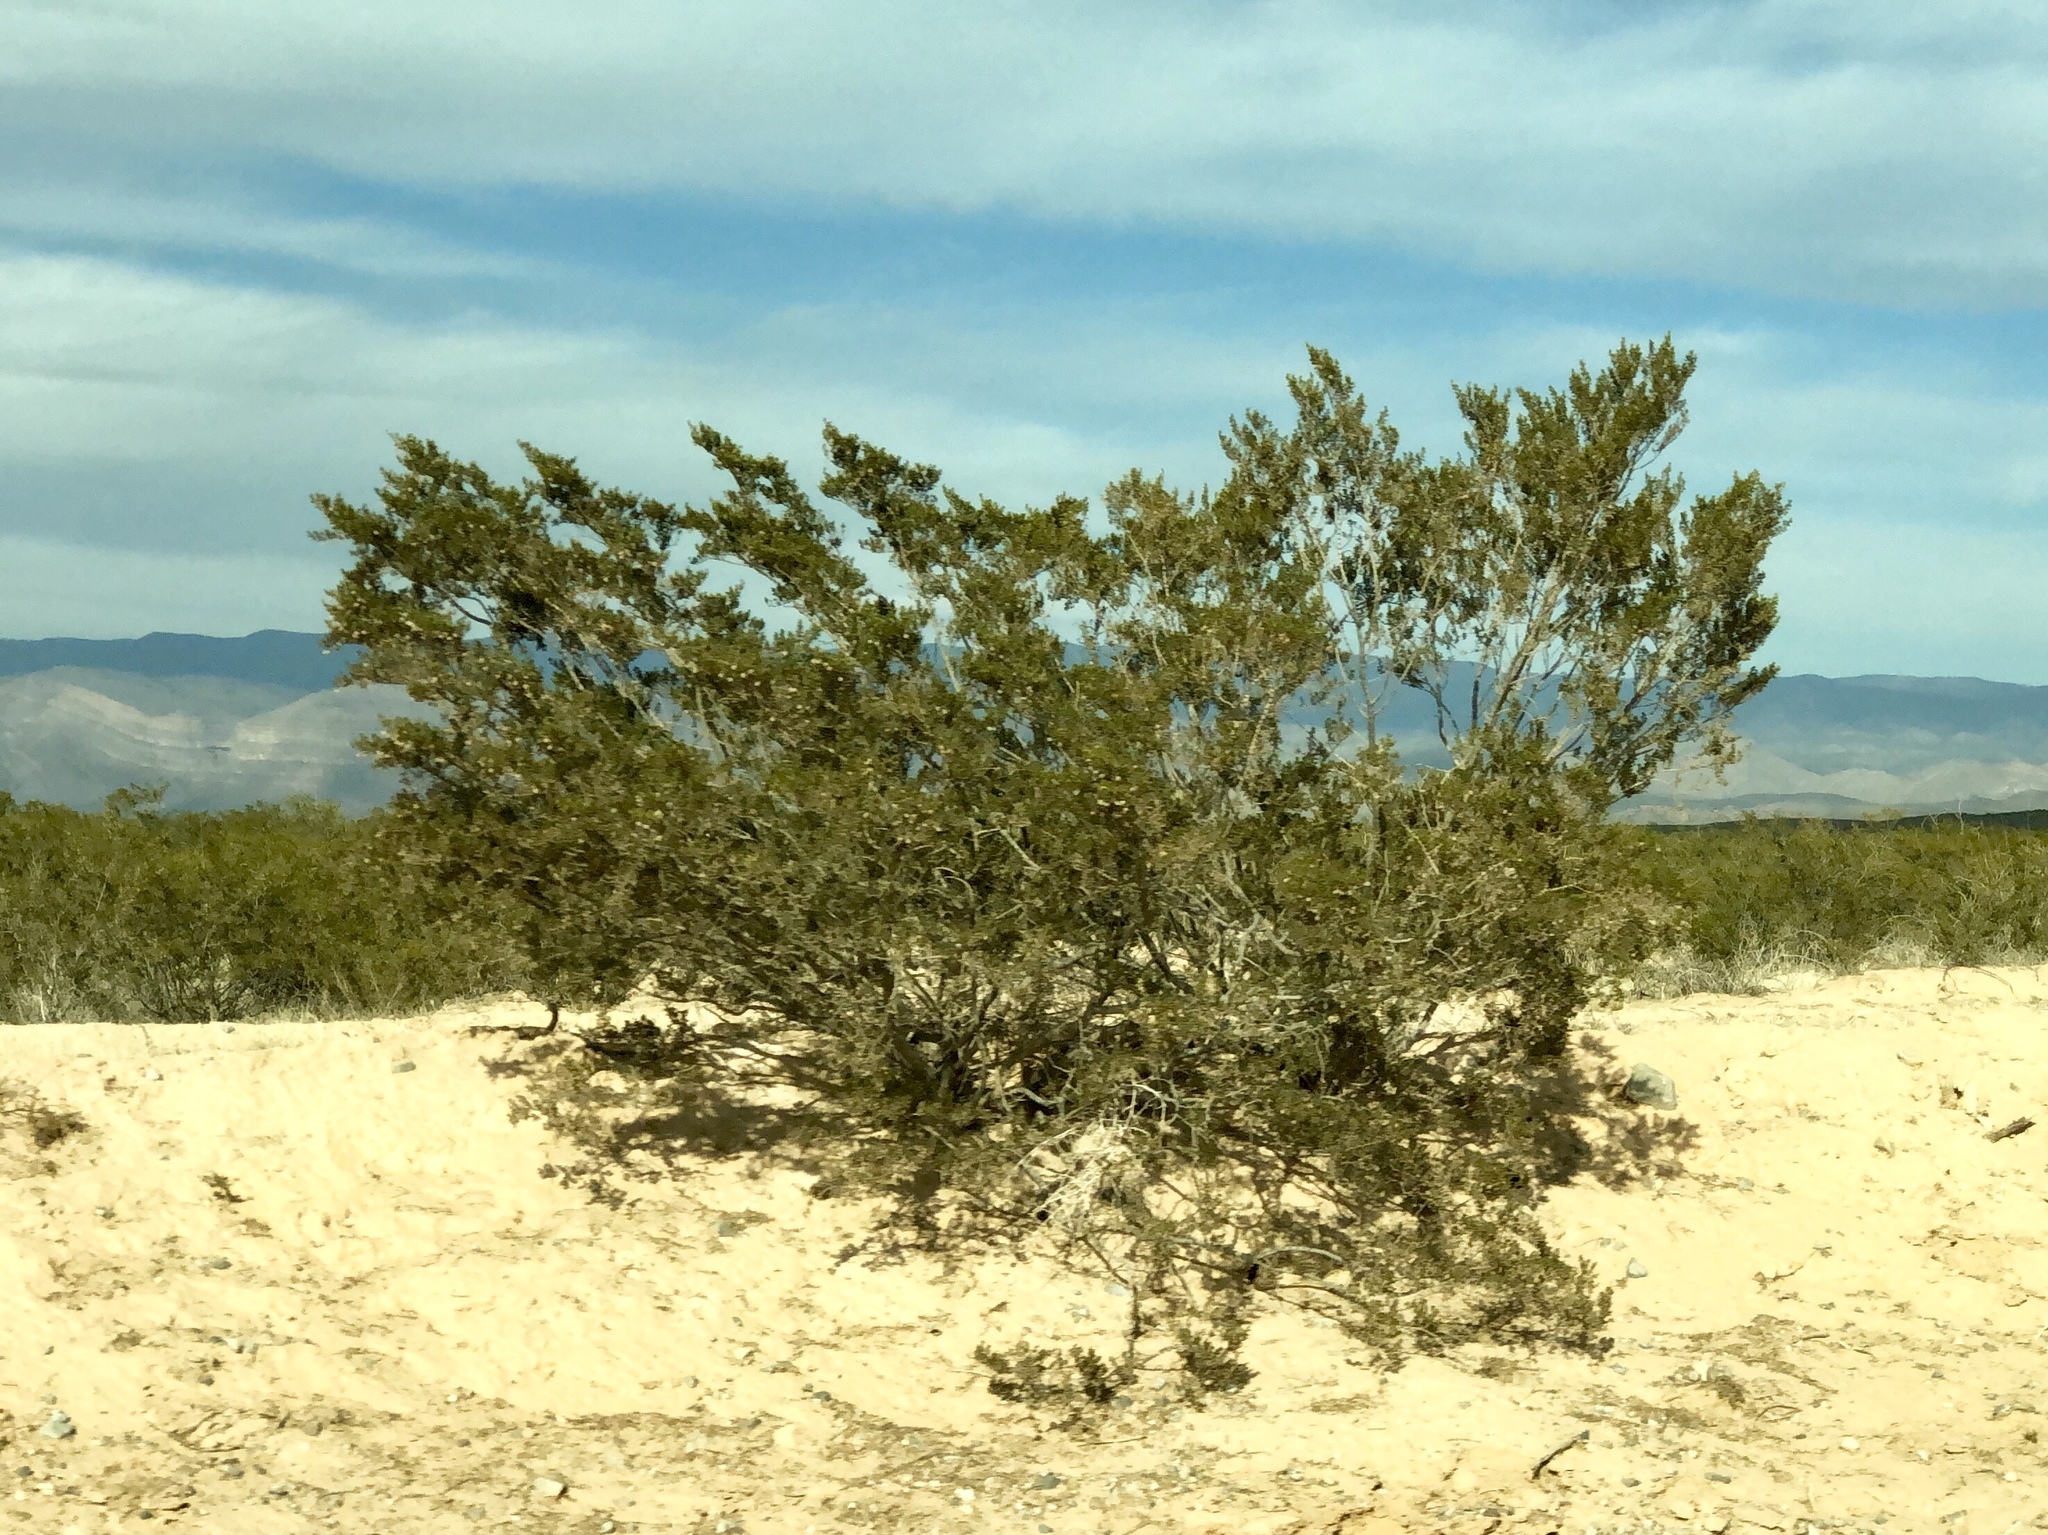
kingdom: Plantae
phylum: Tracheophyta
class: Magnoliopsida
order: Zygophyllales
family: Zygophyllaceae
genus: Larrea
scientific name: Larrea tridentata
